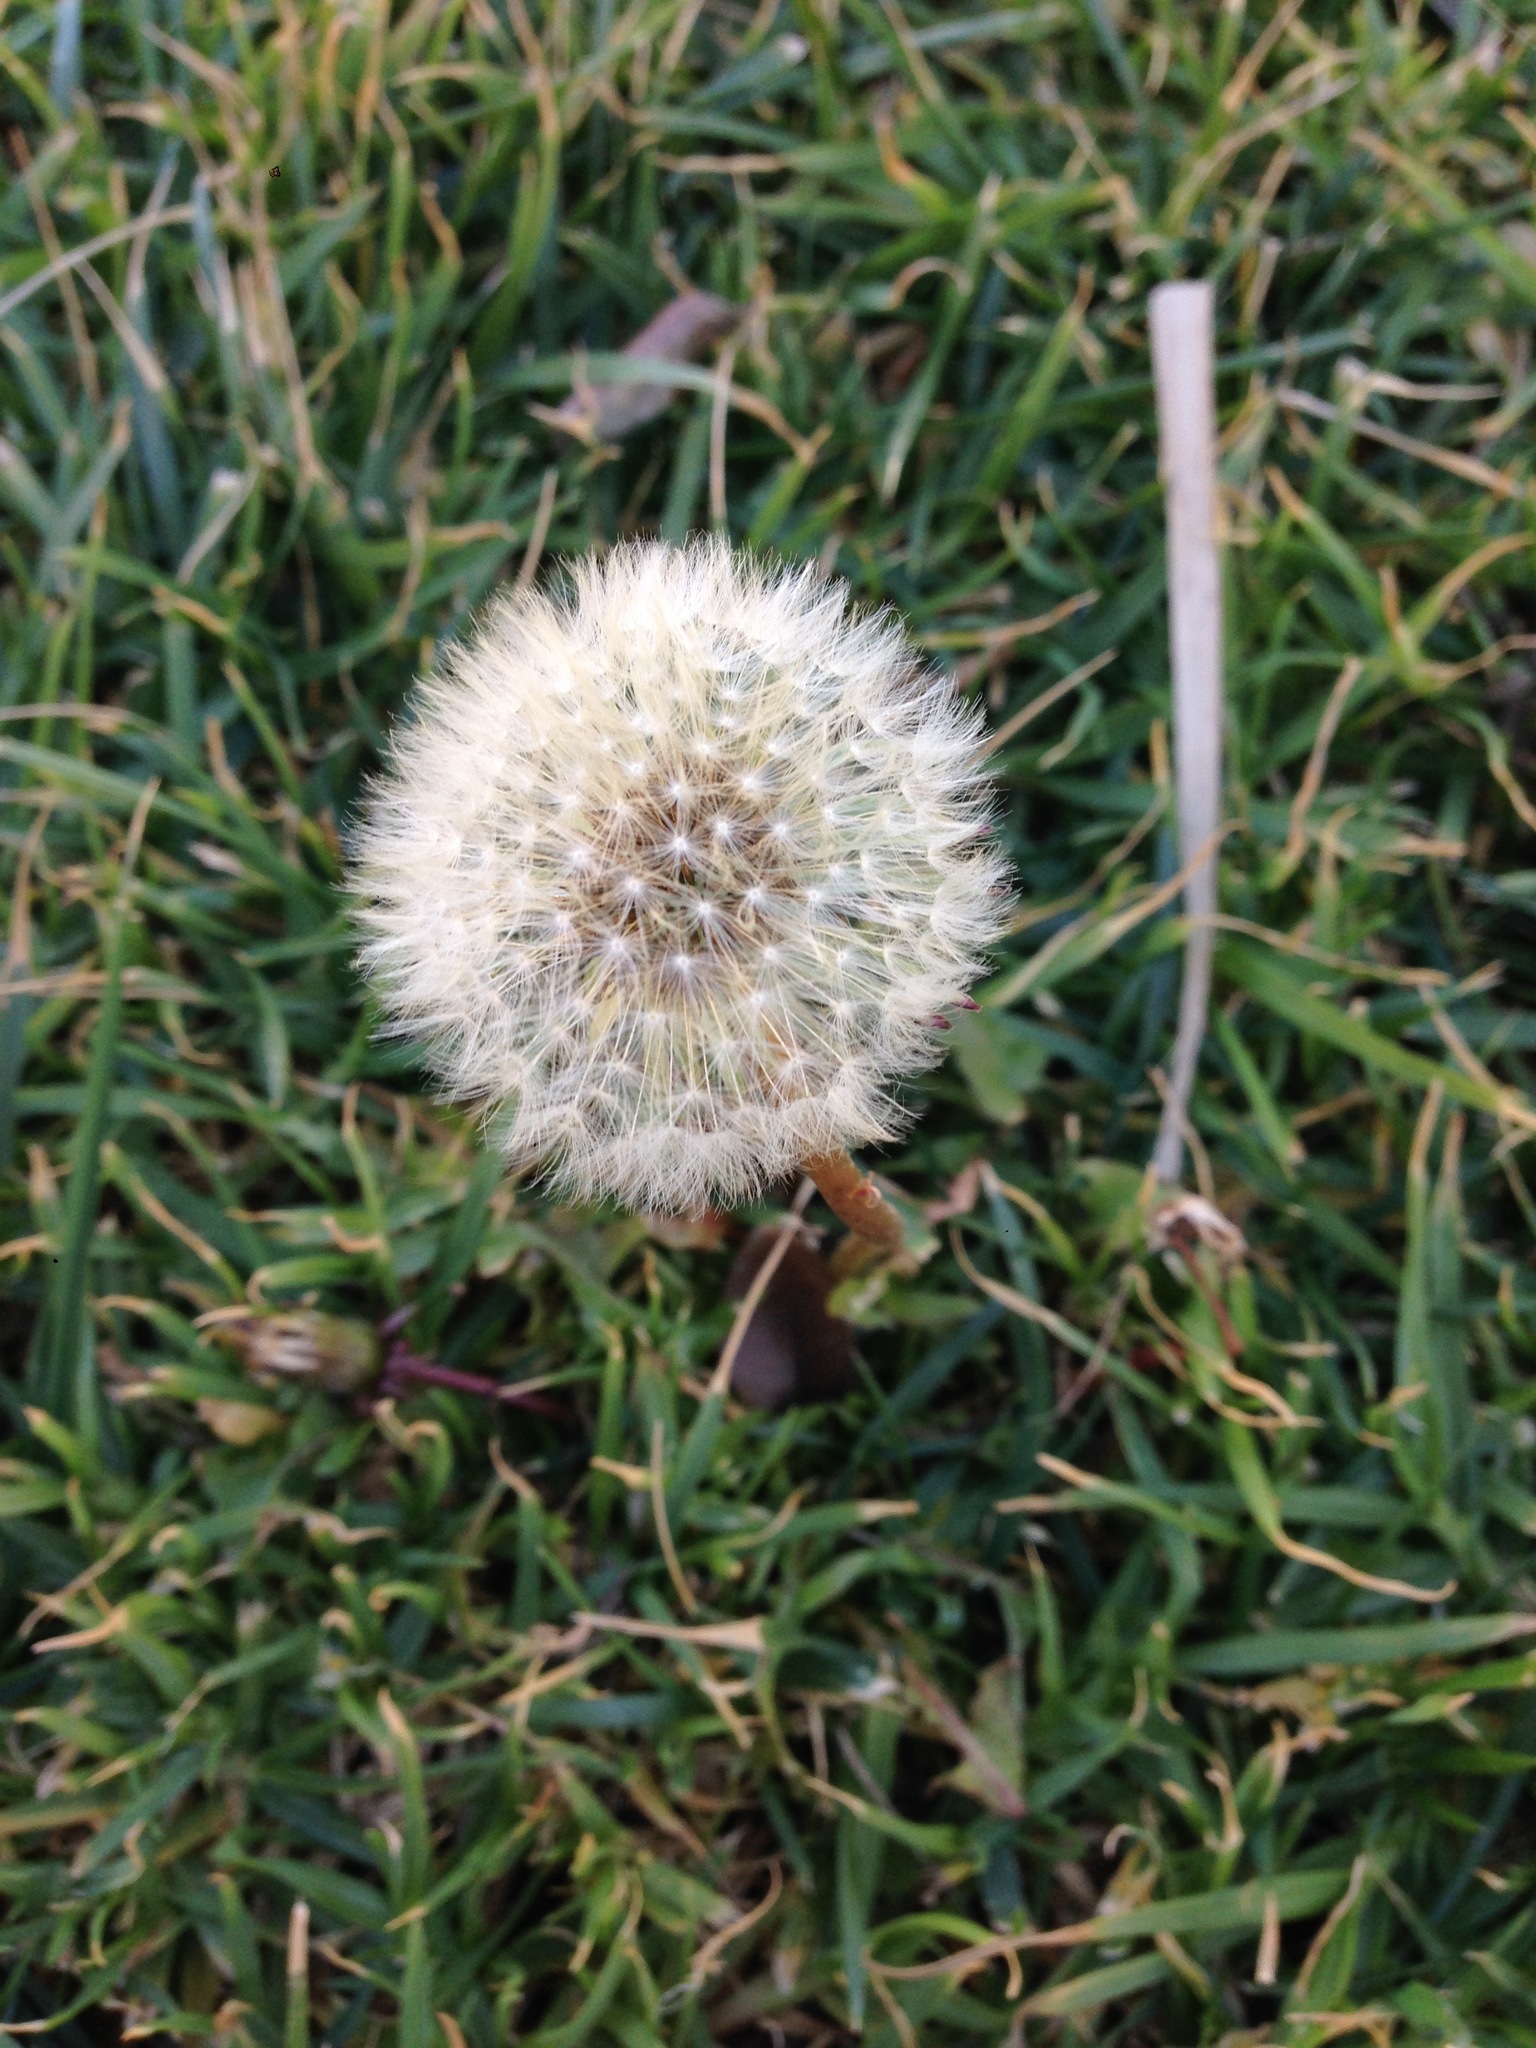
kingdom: Plantae
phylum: Tracheophyta
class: Magnoliopsida
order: Asterales
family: Asteraceae
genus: Taraxacum
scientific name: Taraxacum officinale
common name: Common dandelion
